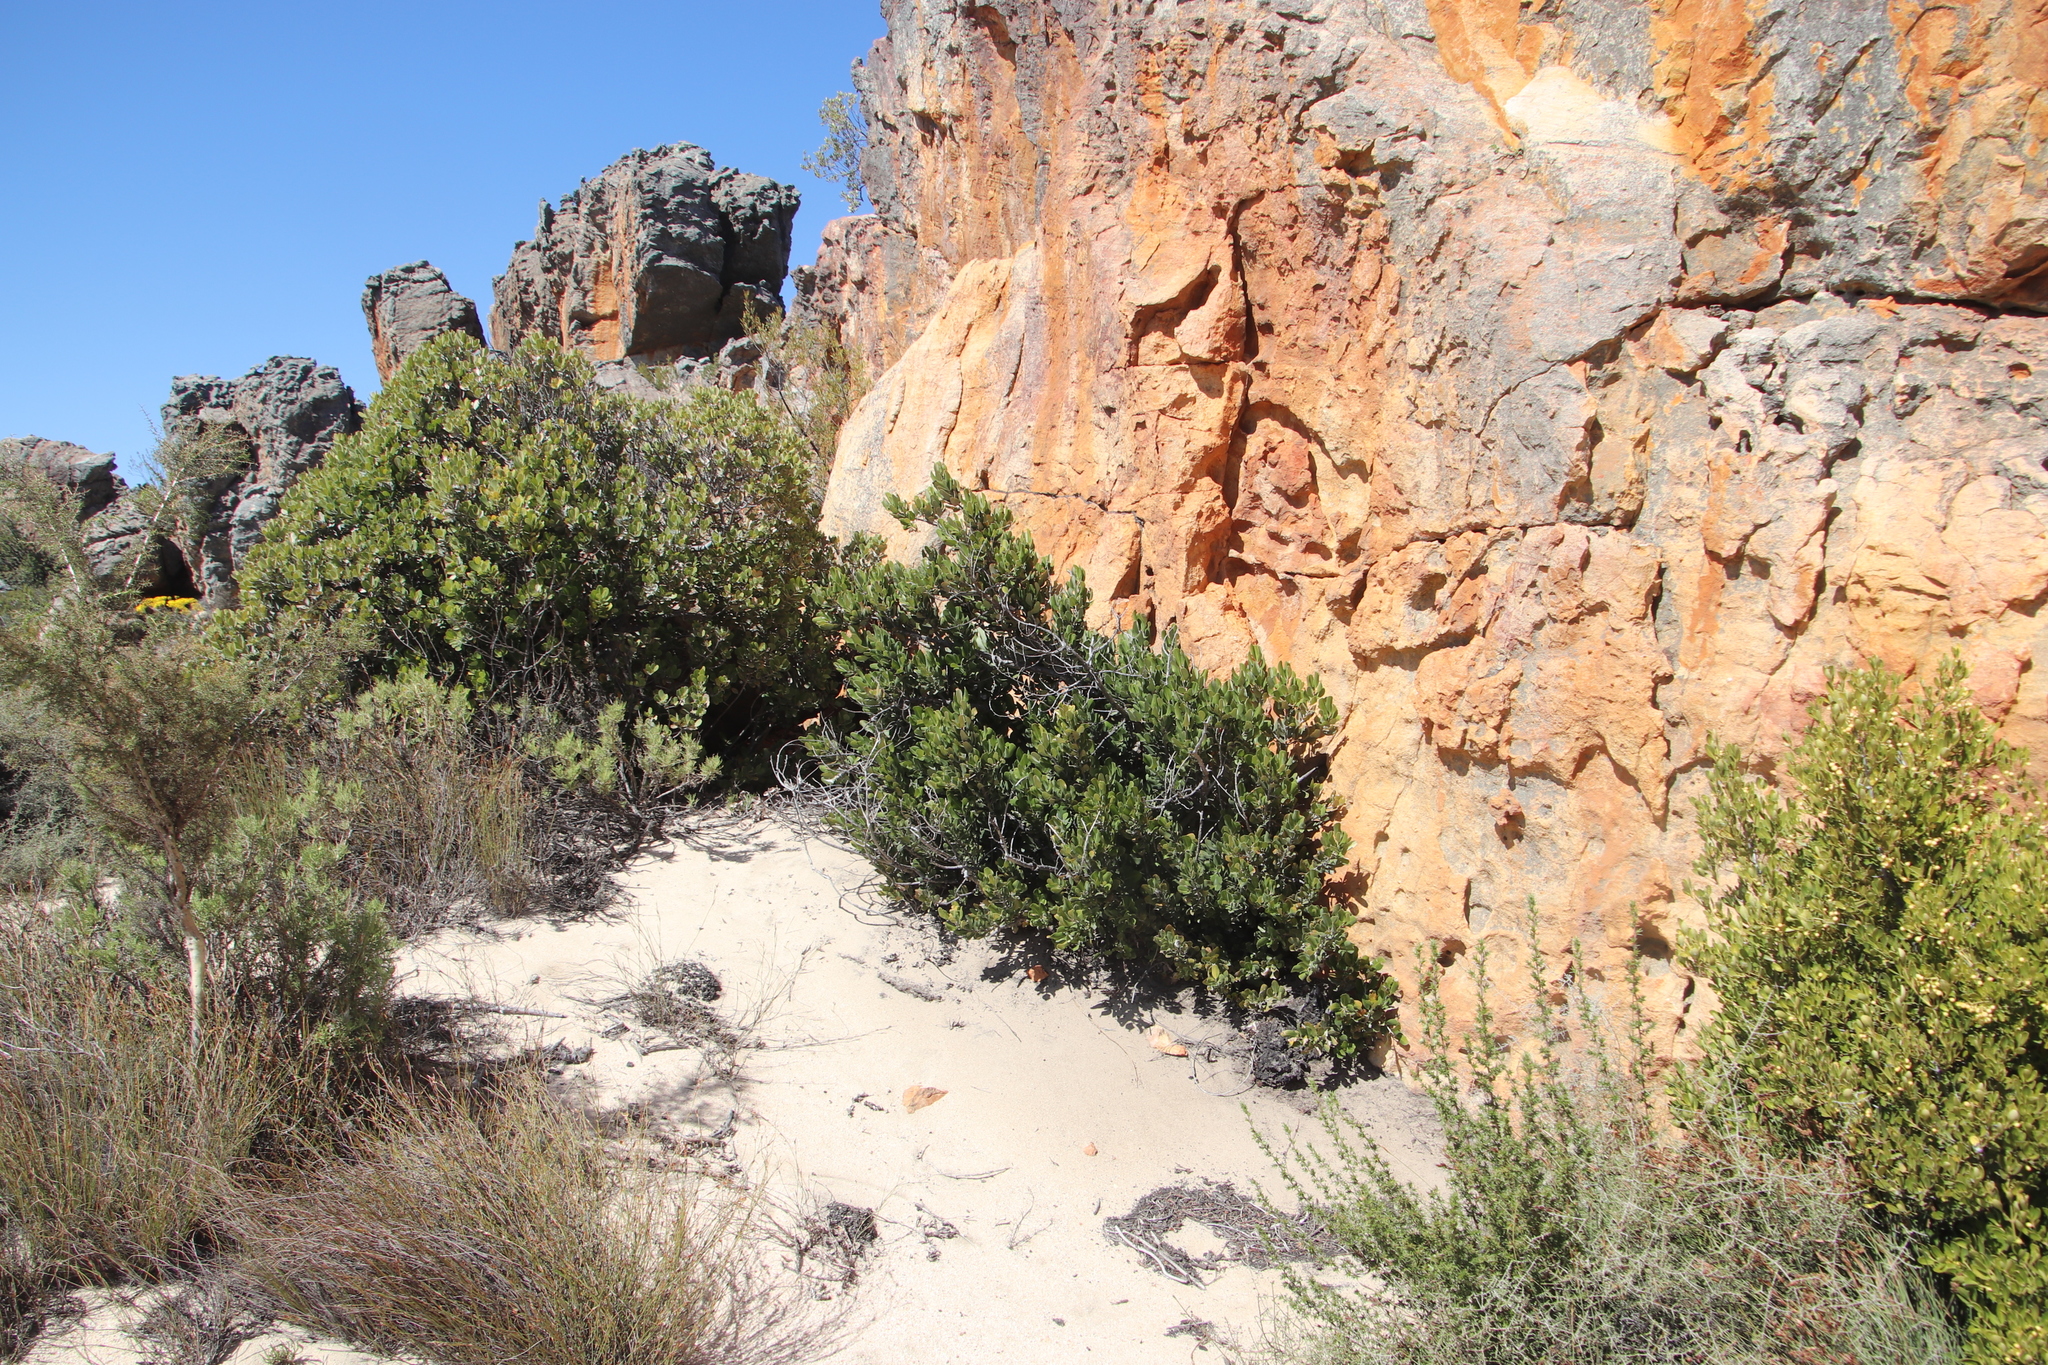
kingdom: Plantae
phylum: Tracheophyta
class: Magnoliopsida
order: Celastrales
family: Celastraceae
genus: Elaeodendron
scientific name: Elaeodendron schinoides
